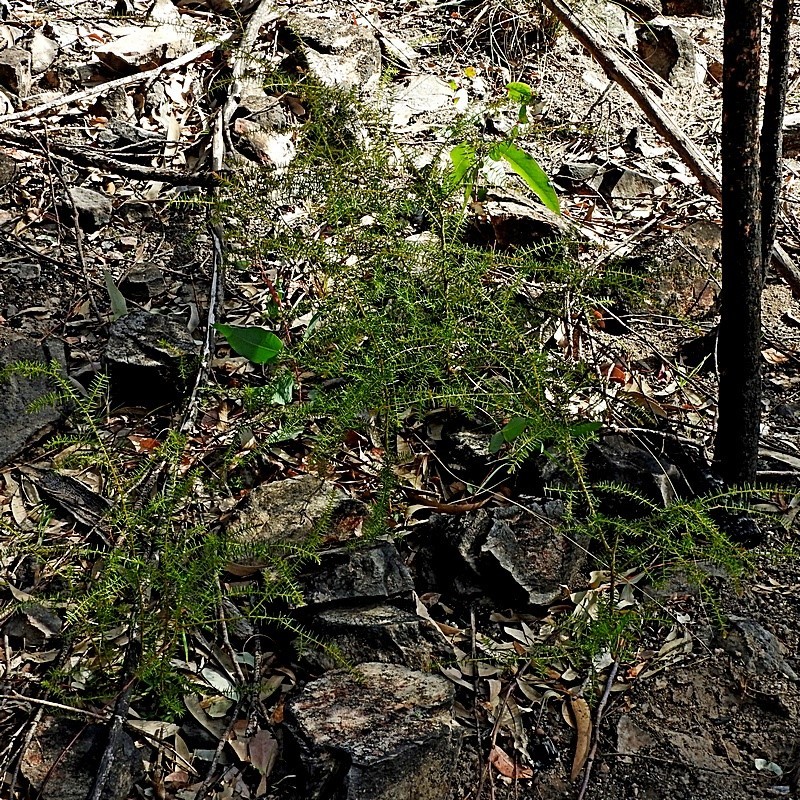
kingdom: Plantae
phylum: Tracheophyta
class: Magnoliopsida
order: Fabales
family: Fabaceae
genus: Acacia
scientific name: Acacia ulicifolia
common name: Juniper wattle
